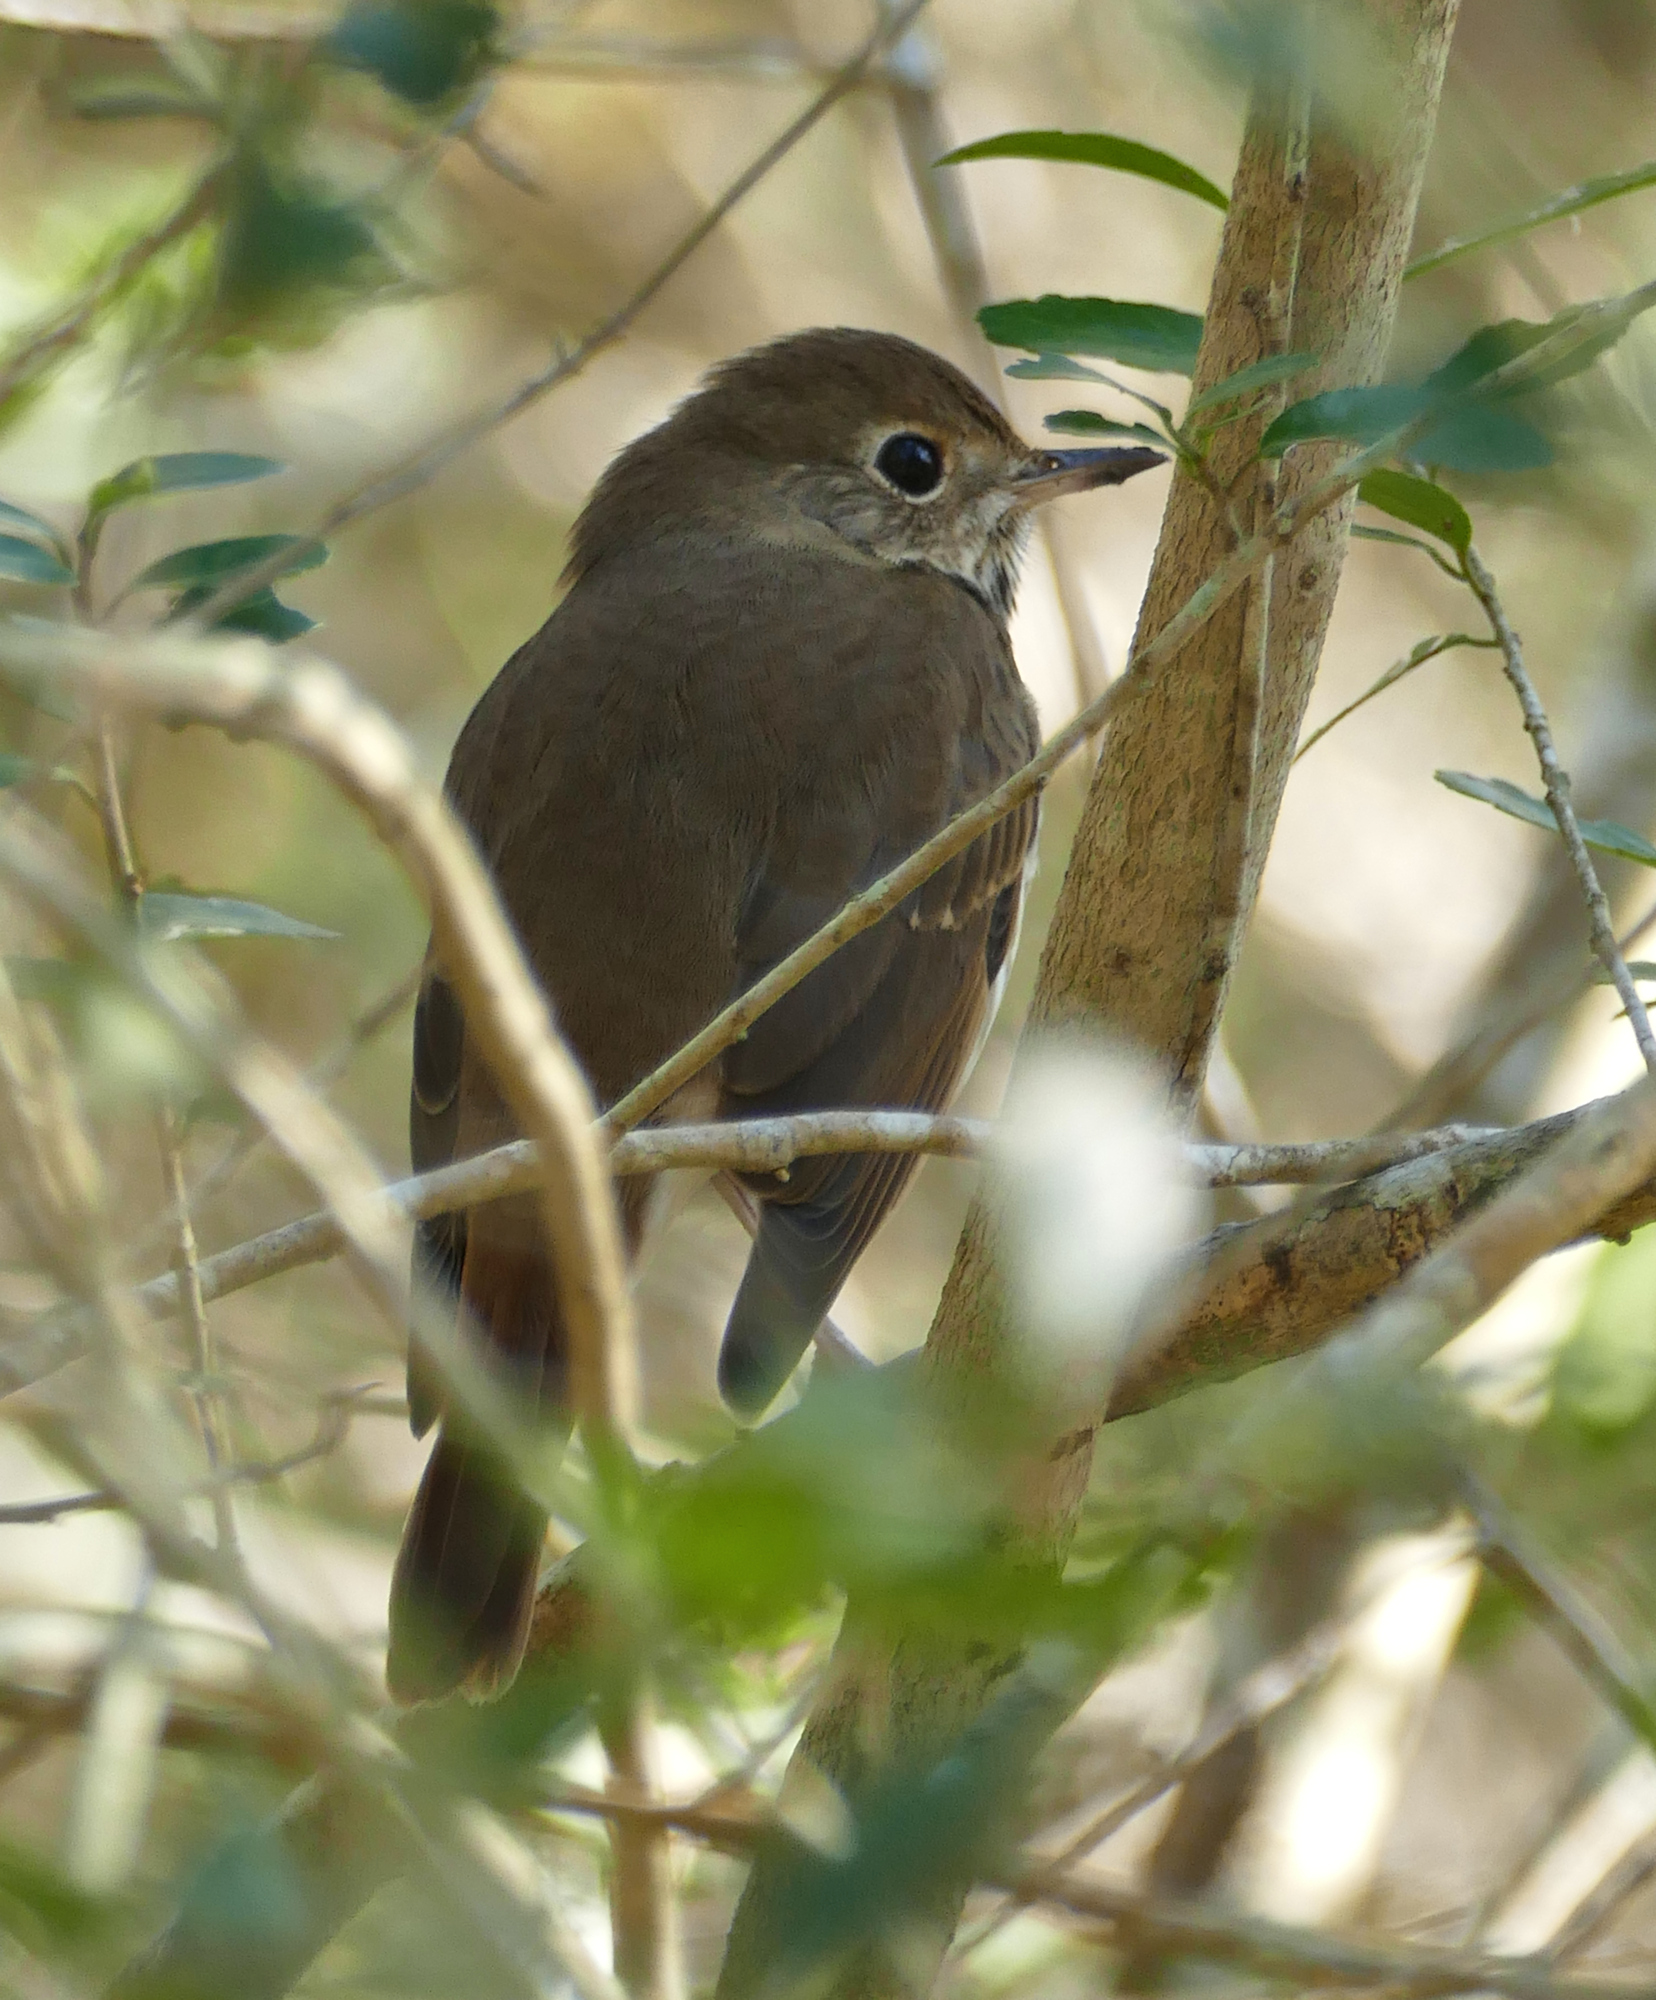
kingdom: Animalia
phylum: Chordata
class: Aves
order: Passeriformes
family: Turdidae
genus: Catharus
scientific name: Catharus guttatus
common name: Hermit thrush
